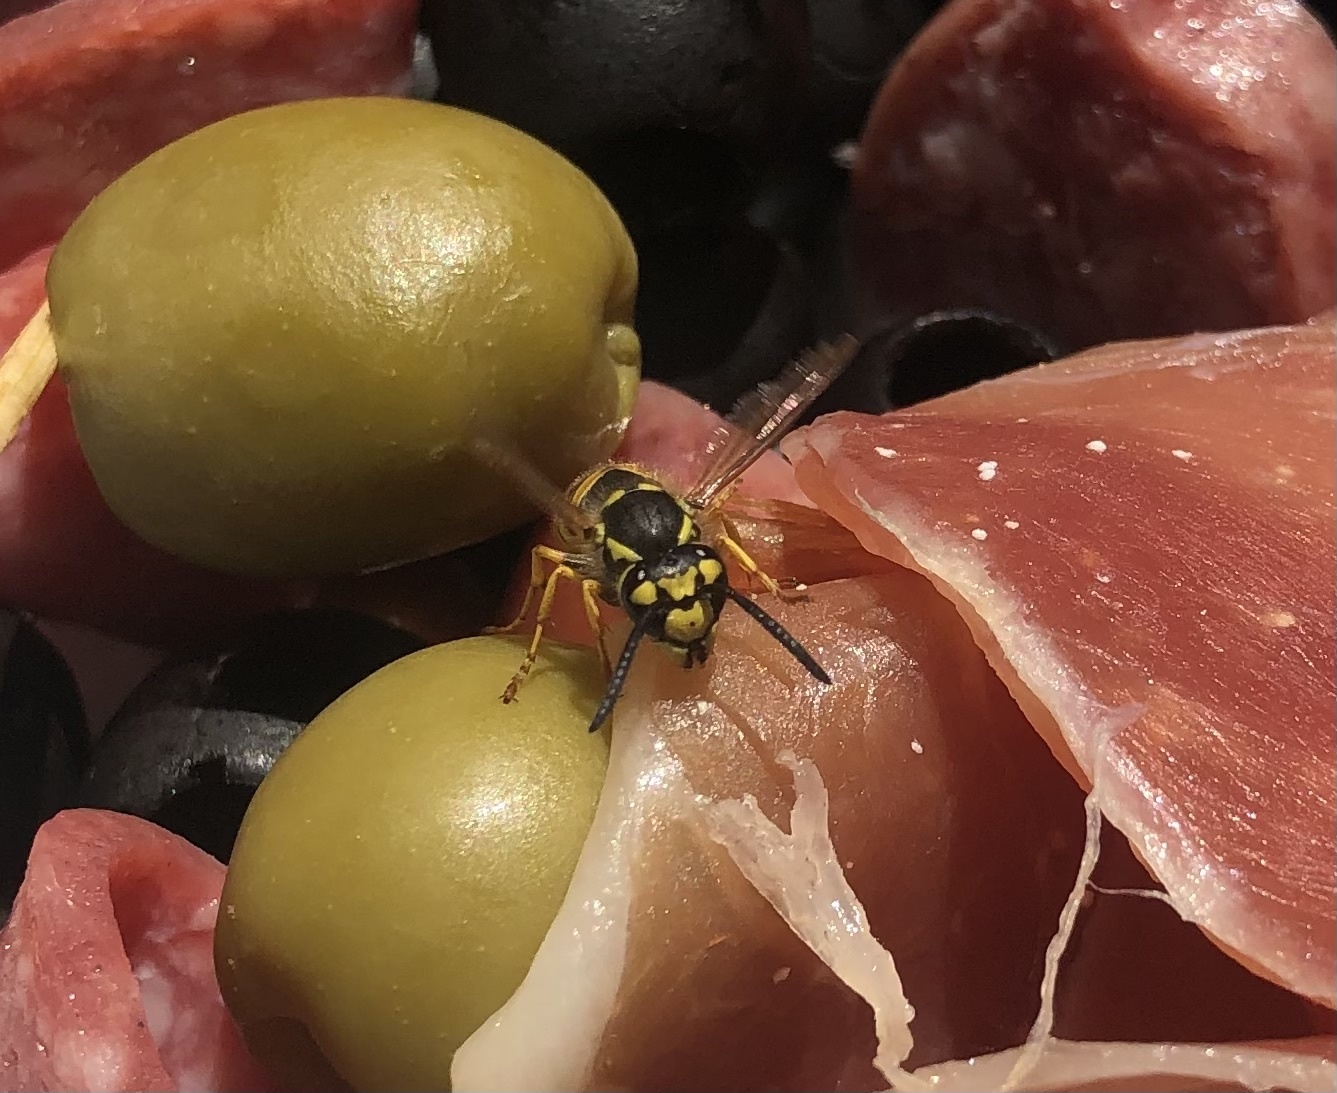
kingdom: Animalia
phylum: Arthropoda
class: Insecta
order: Hymenoptera
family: Vespidae
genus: Vespula
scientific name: Vespula germanica
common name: German wasp
